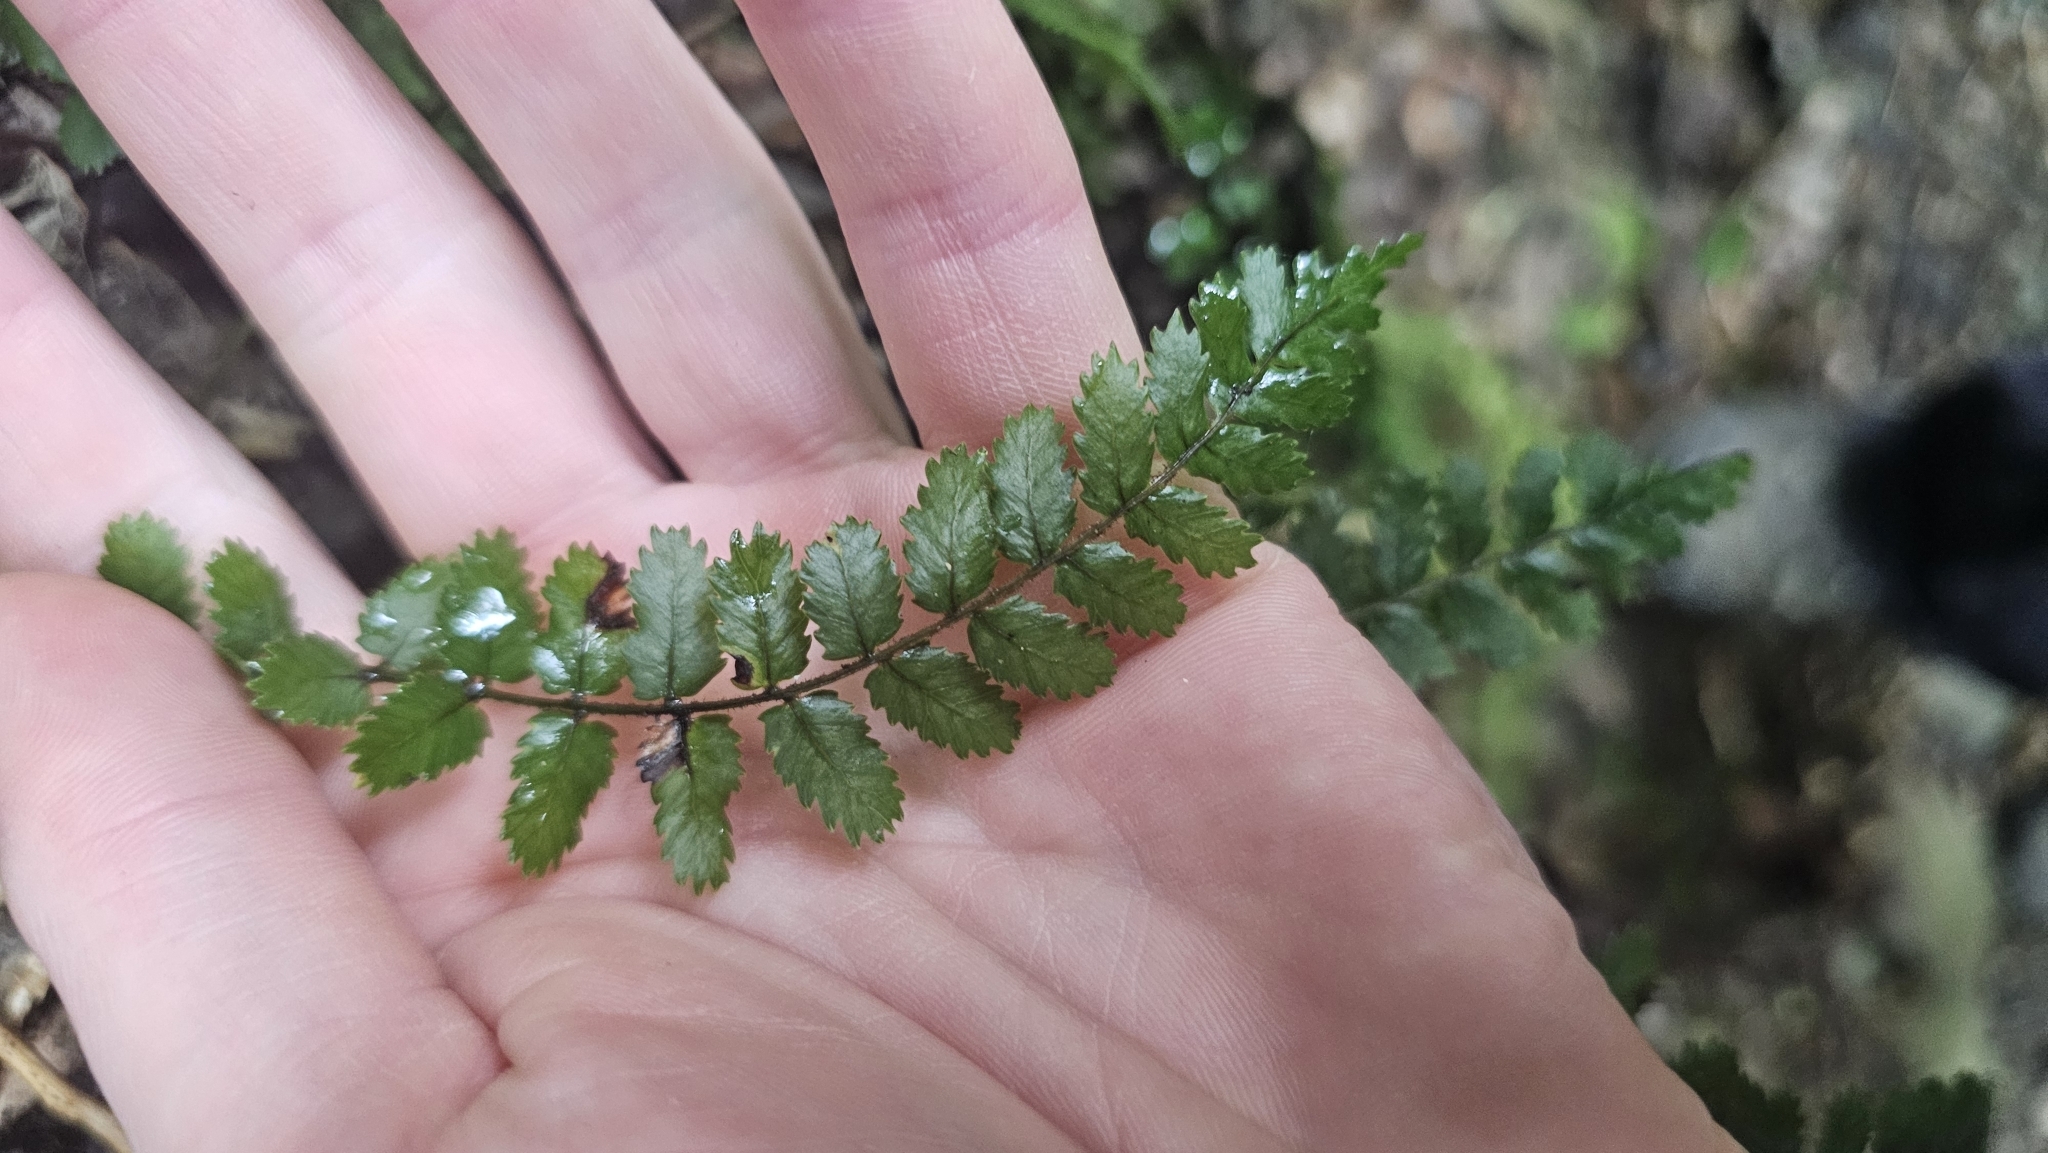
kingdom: Plantae
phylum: Tracheophyta
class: Polypodiopsida
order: Polypodiales
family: Blechnaceae
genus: Icarus
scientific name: Icarus filiformis
